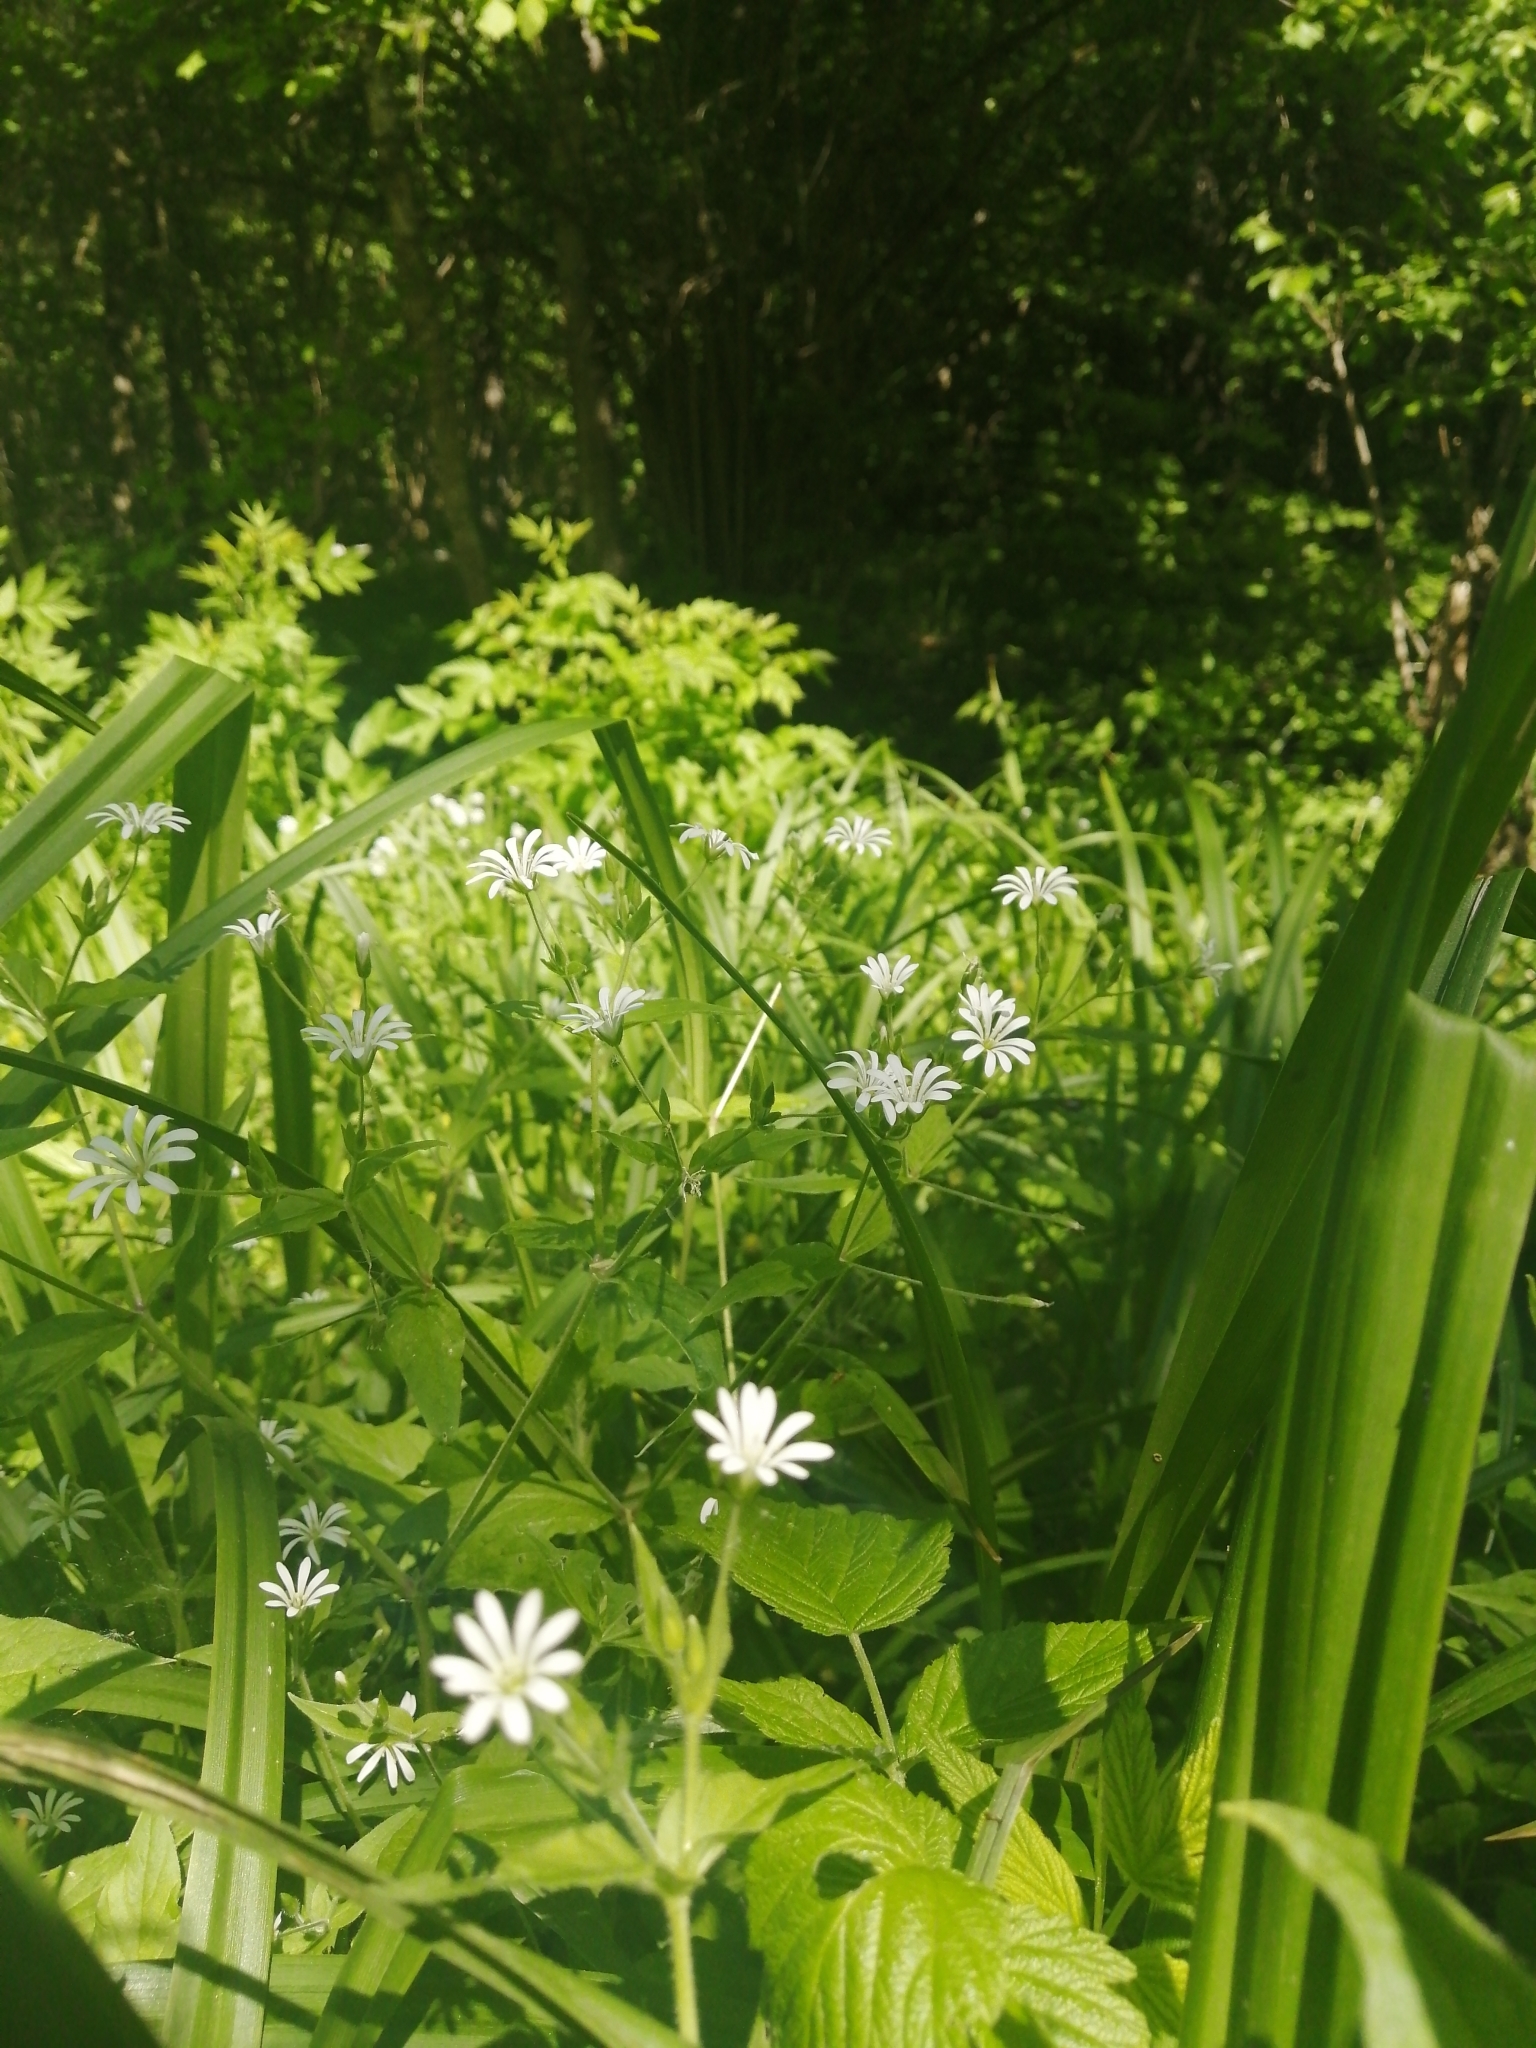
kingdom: Plantae
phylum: Tracheophyta
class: Magnoliopsida
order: Caryophyllales
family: Caryophyllaceae
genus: Stellaria
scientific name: Stellaria nemorum
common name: Wood stitchwort
